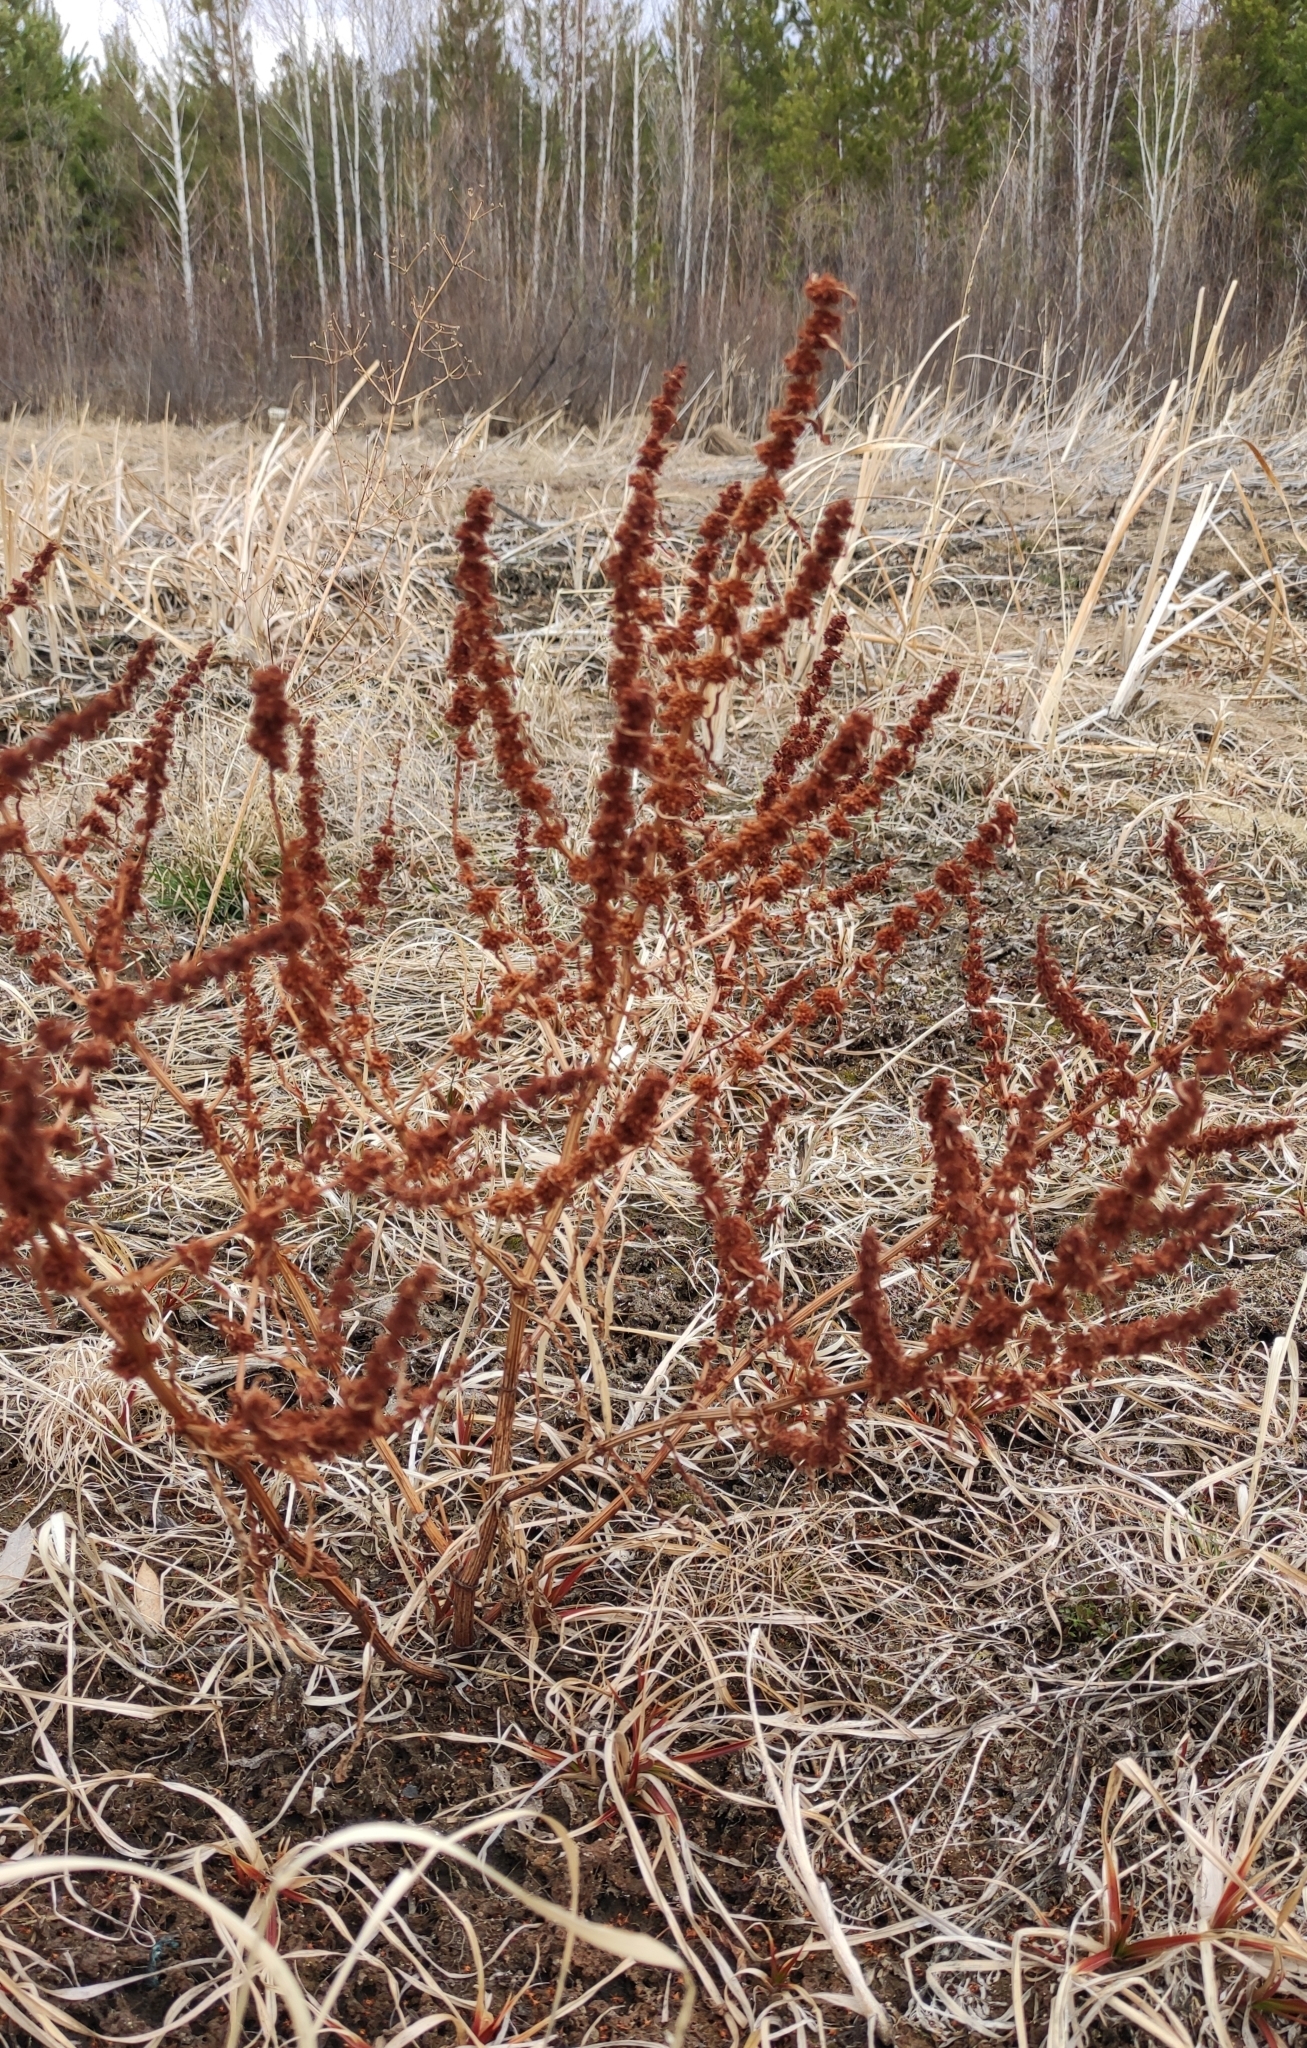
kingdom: Plantae
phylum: Tracheophyta
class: Magnoliopsida
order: Caryophyllales
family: Polygonaceae
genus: Rumex
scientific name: Rumex maritimus
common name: Golden dock
